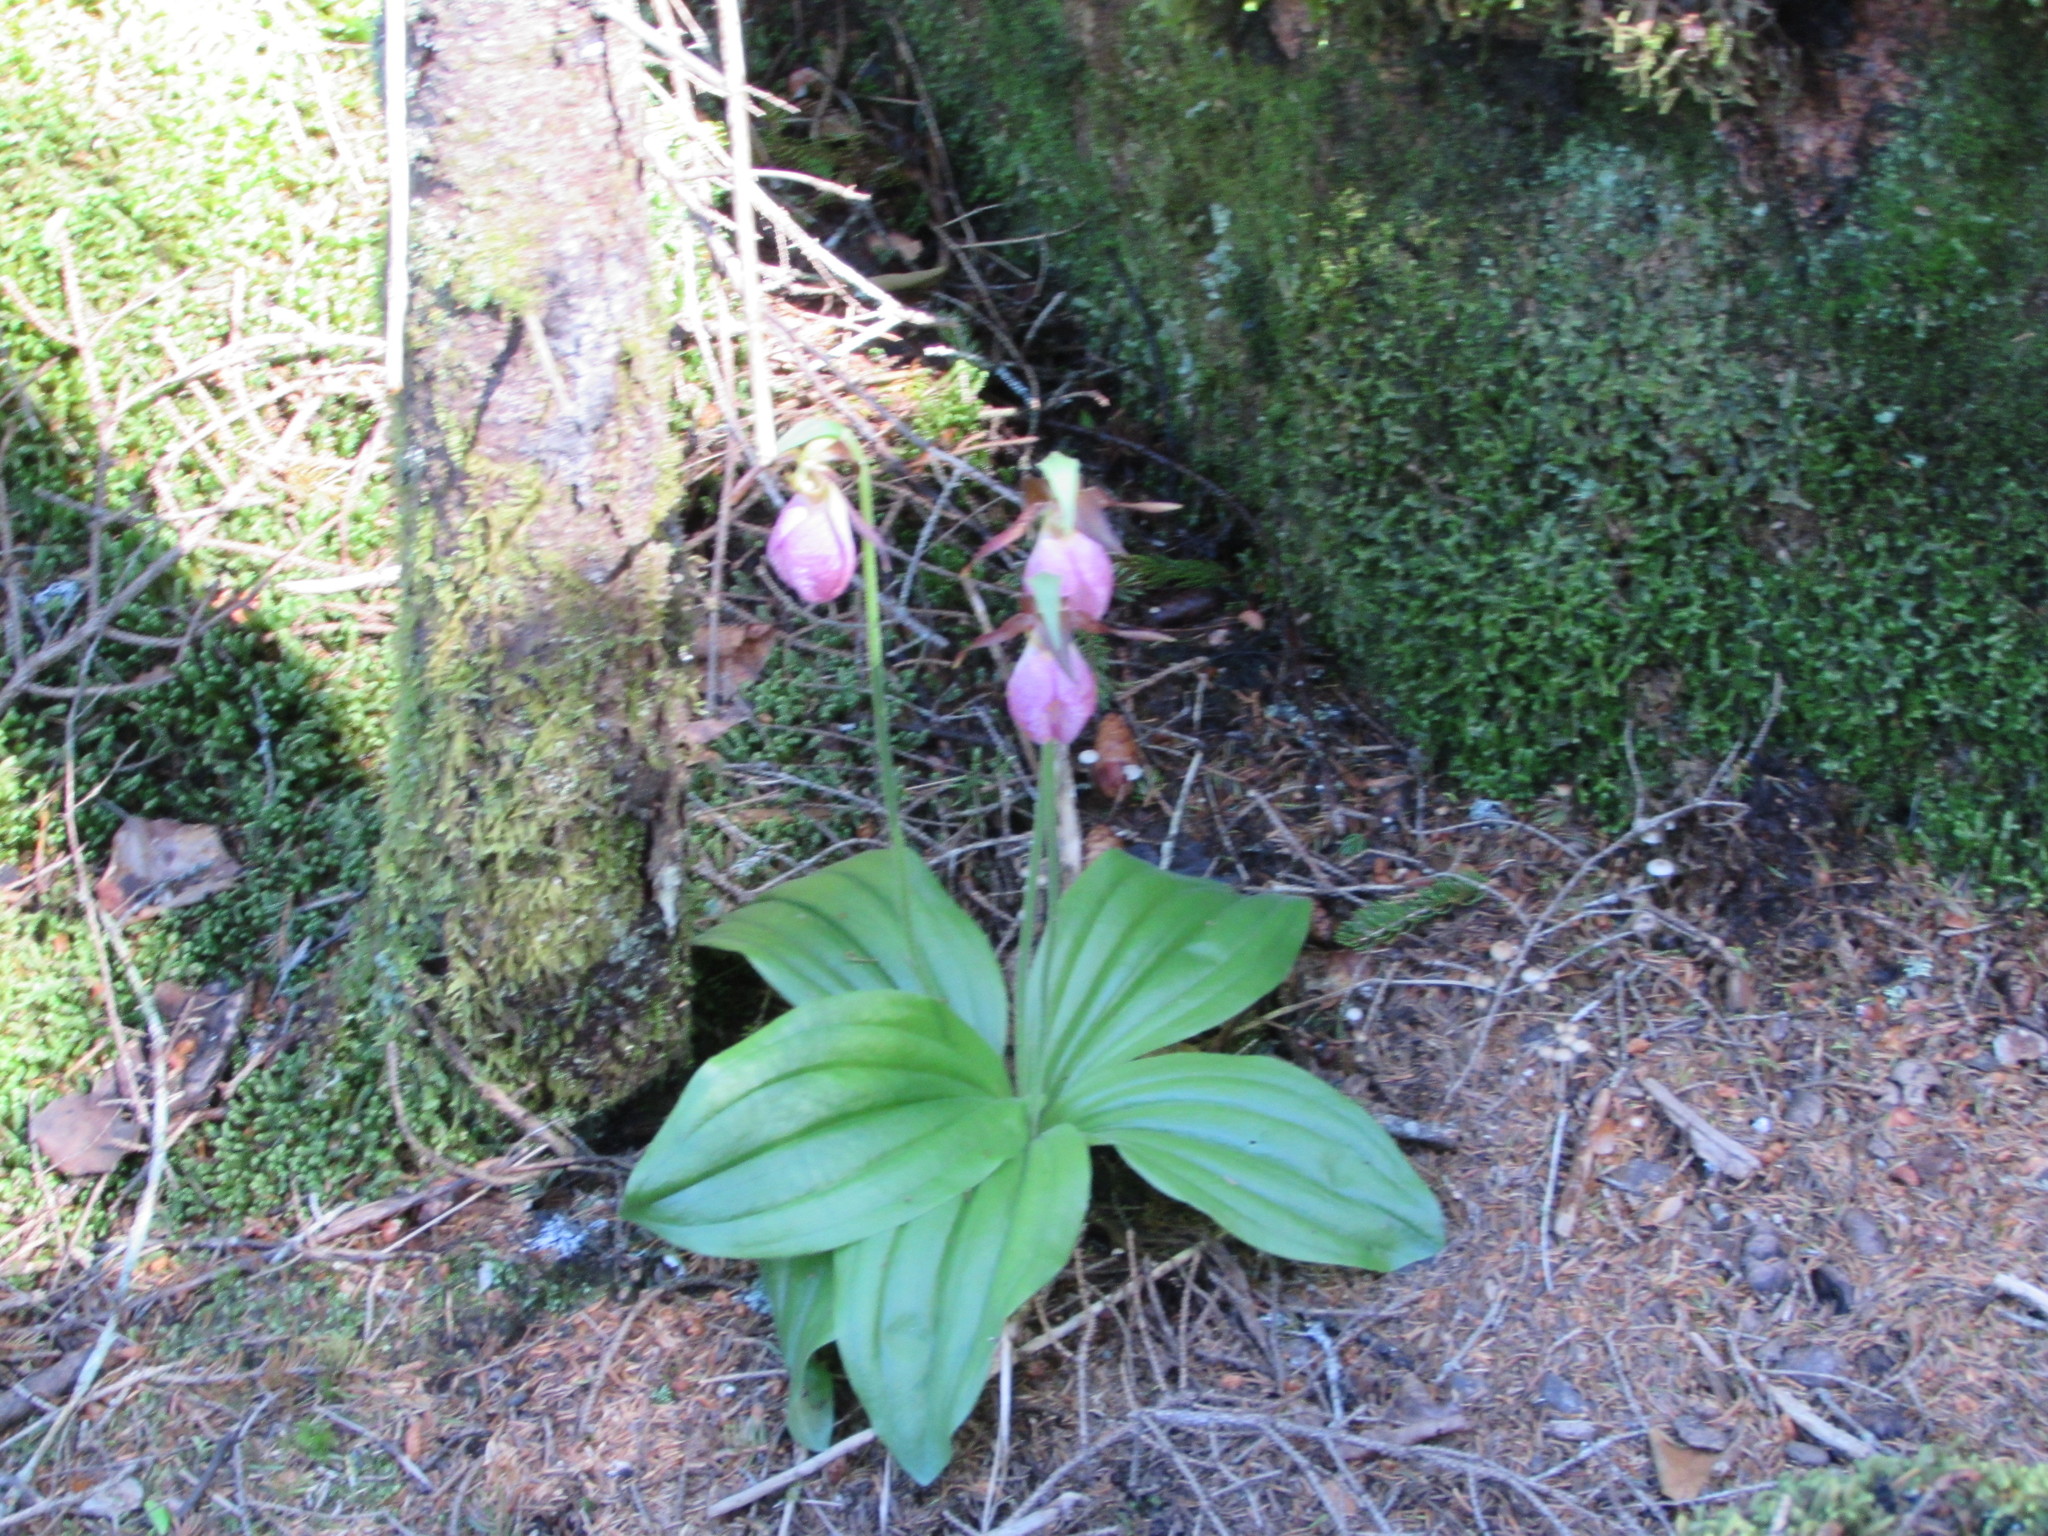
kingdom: Plantae
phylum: Tracheophyta
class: Liliopsida
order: Asparagales
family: Orchidaceae
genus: Cypripedium
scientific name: Cypripedium acaule
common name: Pink lady's-slipper
